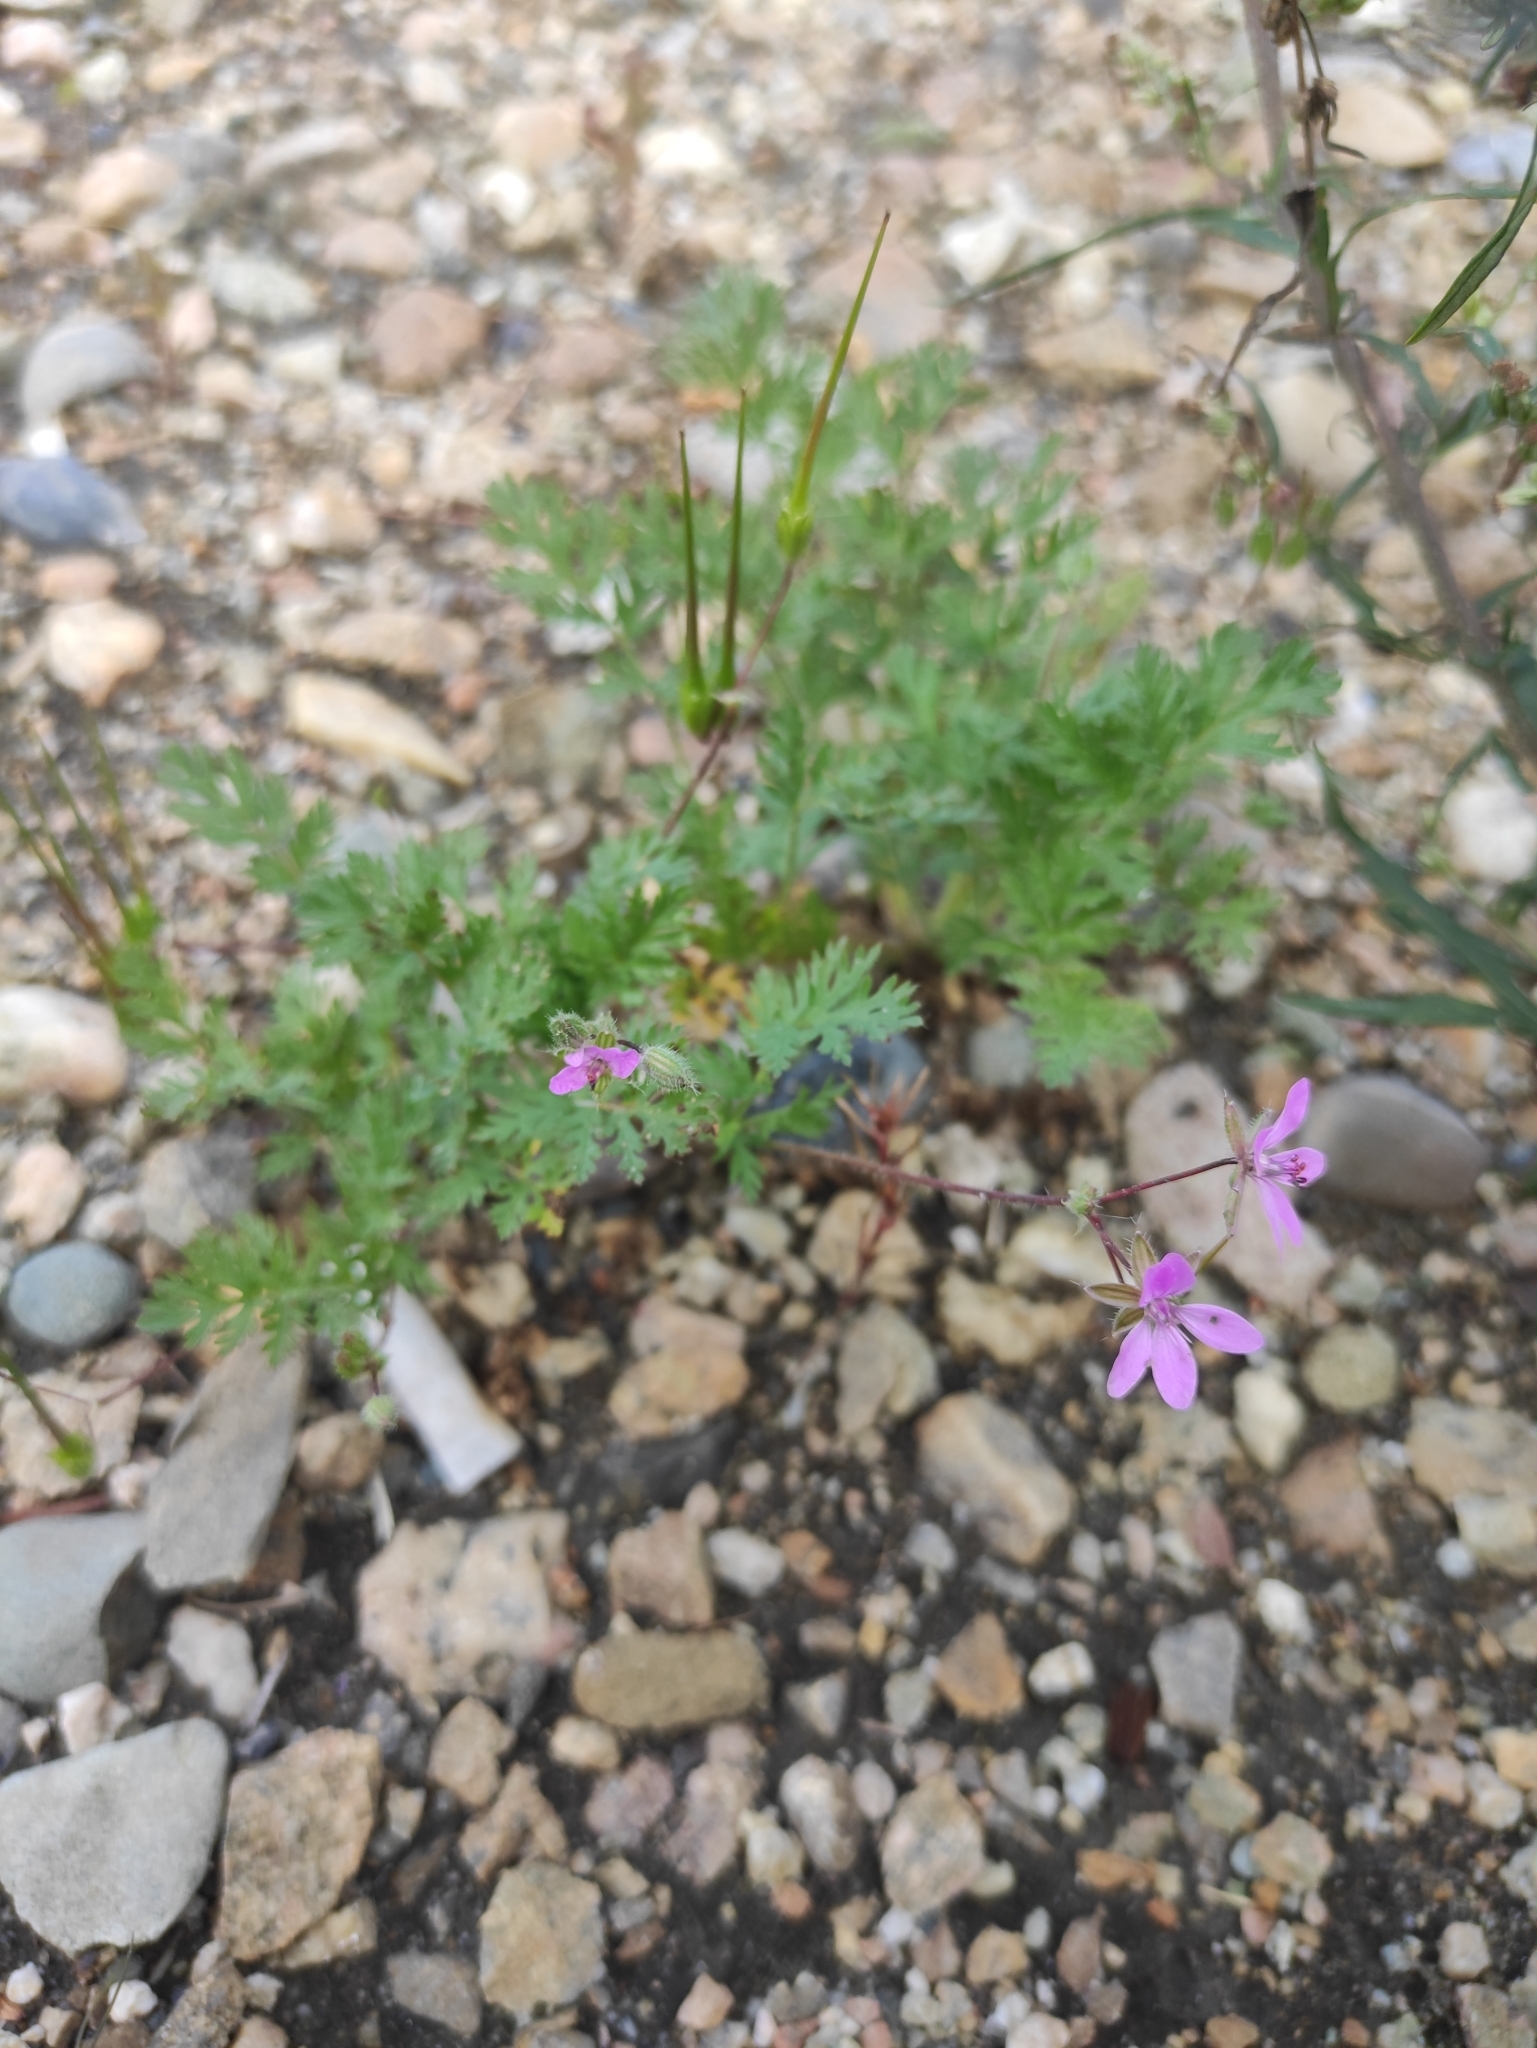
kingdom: Plantae
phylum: Tracheophyta
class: Magnoliopsida
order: Geraniales
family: Geraniaceae
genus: Erodium
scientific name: Erodium cicutarium
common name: Common stork's-bill
